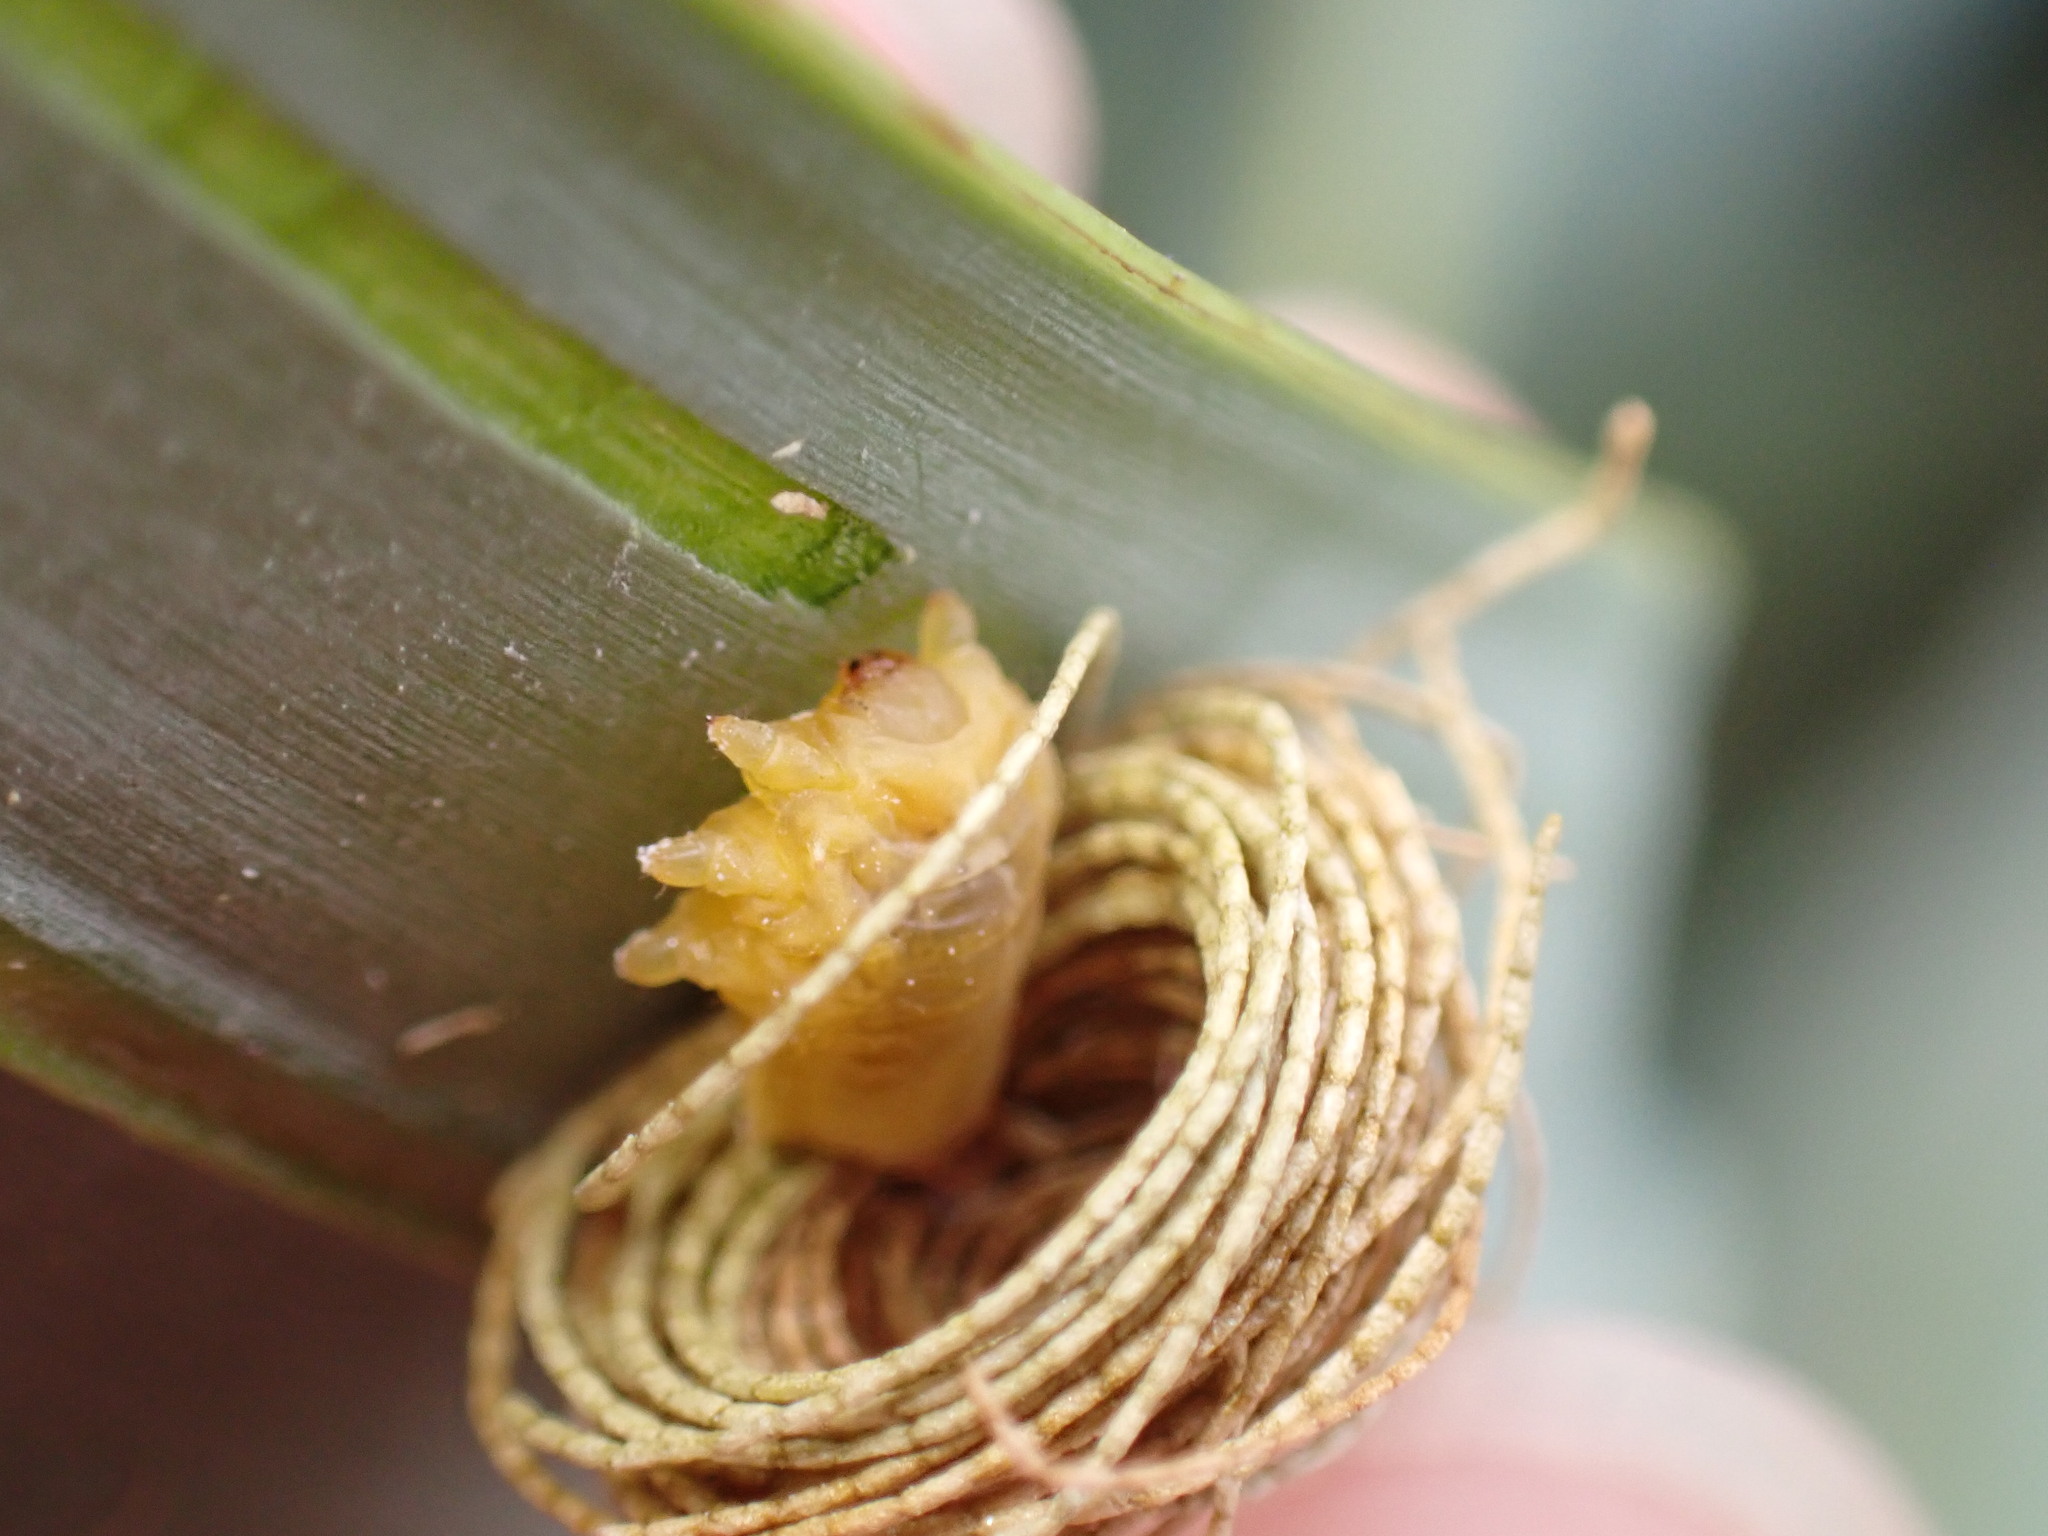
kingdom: Animalia
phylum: Arthropoda
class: Insecta
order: Coleoptera
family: Chrysomelidae
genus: Hemisphaerota
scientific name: Hemisphaerota cyanea
